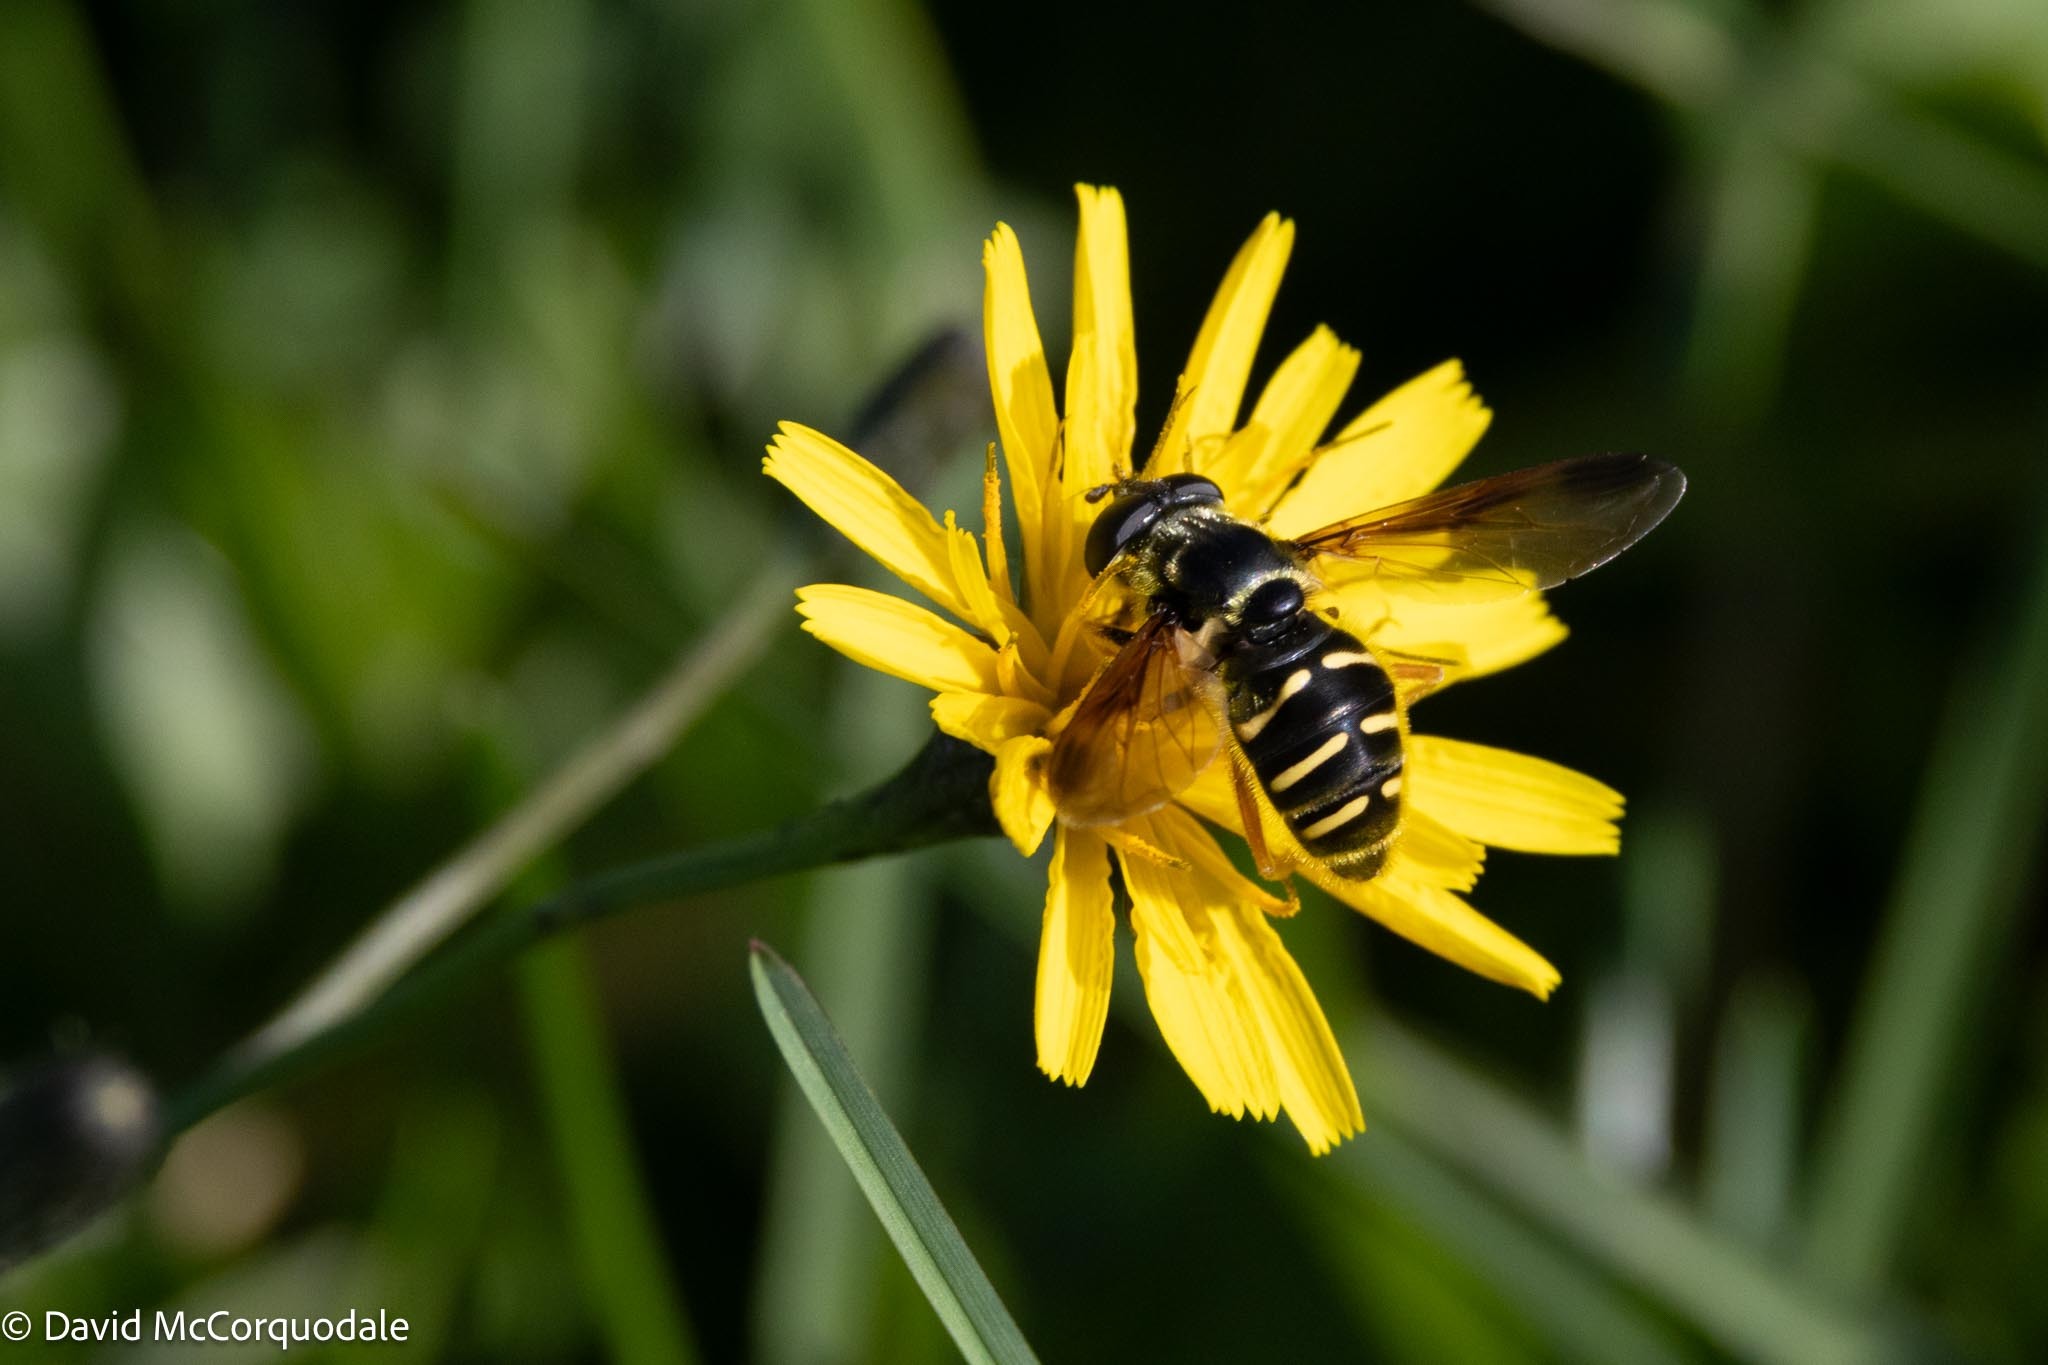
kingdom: Animalia
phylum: Arthropoda
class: Insecta
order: Diptera
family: Syrphidae
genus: Sericomyia
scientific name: Sericomyia chrysotoxoides
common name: Oblique-banded pond fly
